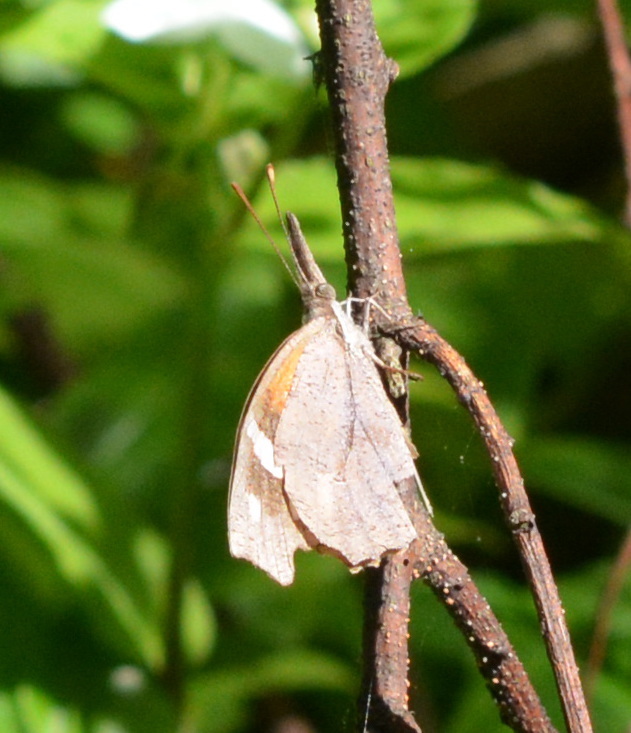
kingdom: Animalia
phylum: Arthropoda
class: Insecta
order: Lepidoptera
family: Nymphalidae
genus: Libytheana
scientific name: Libytheana carinenta
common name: American snout
